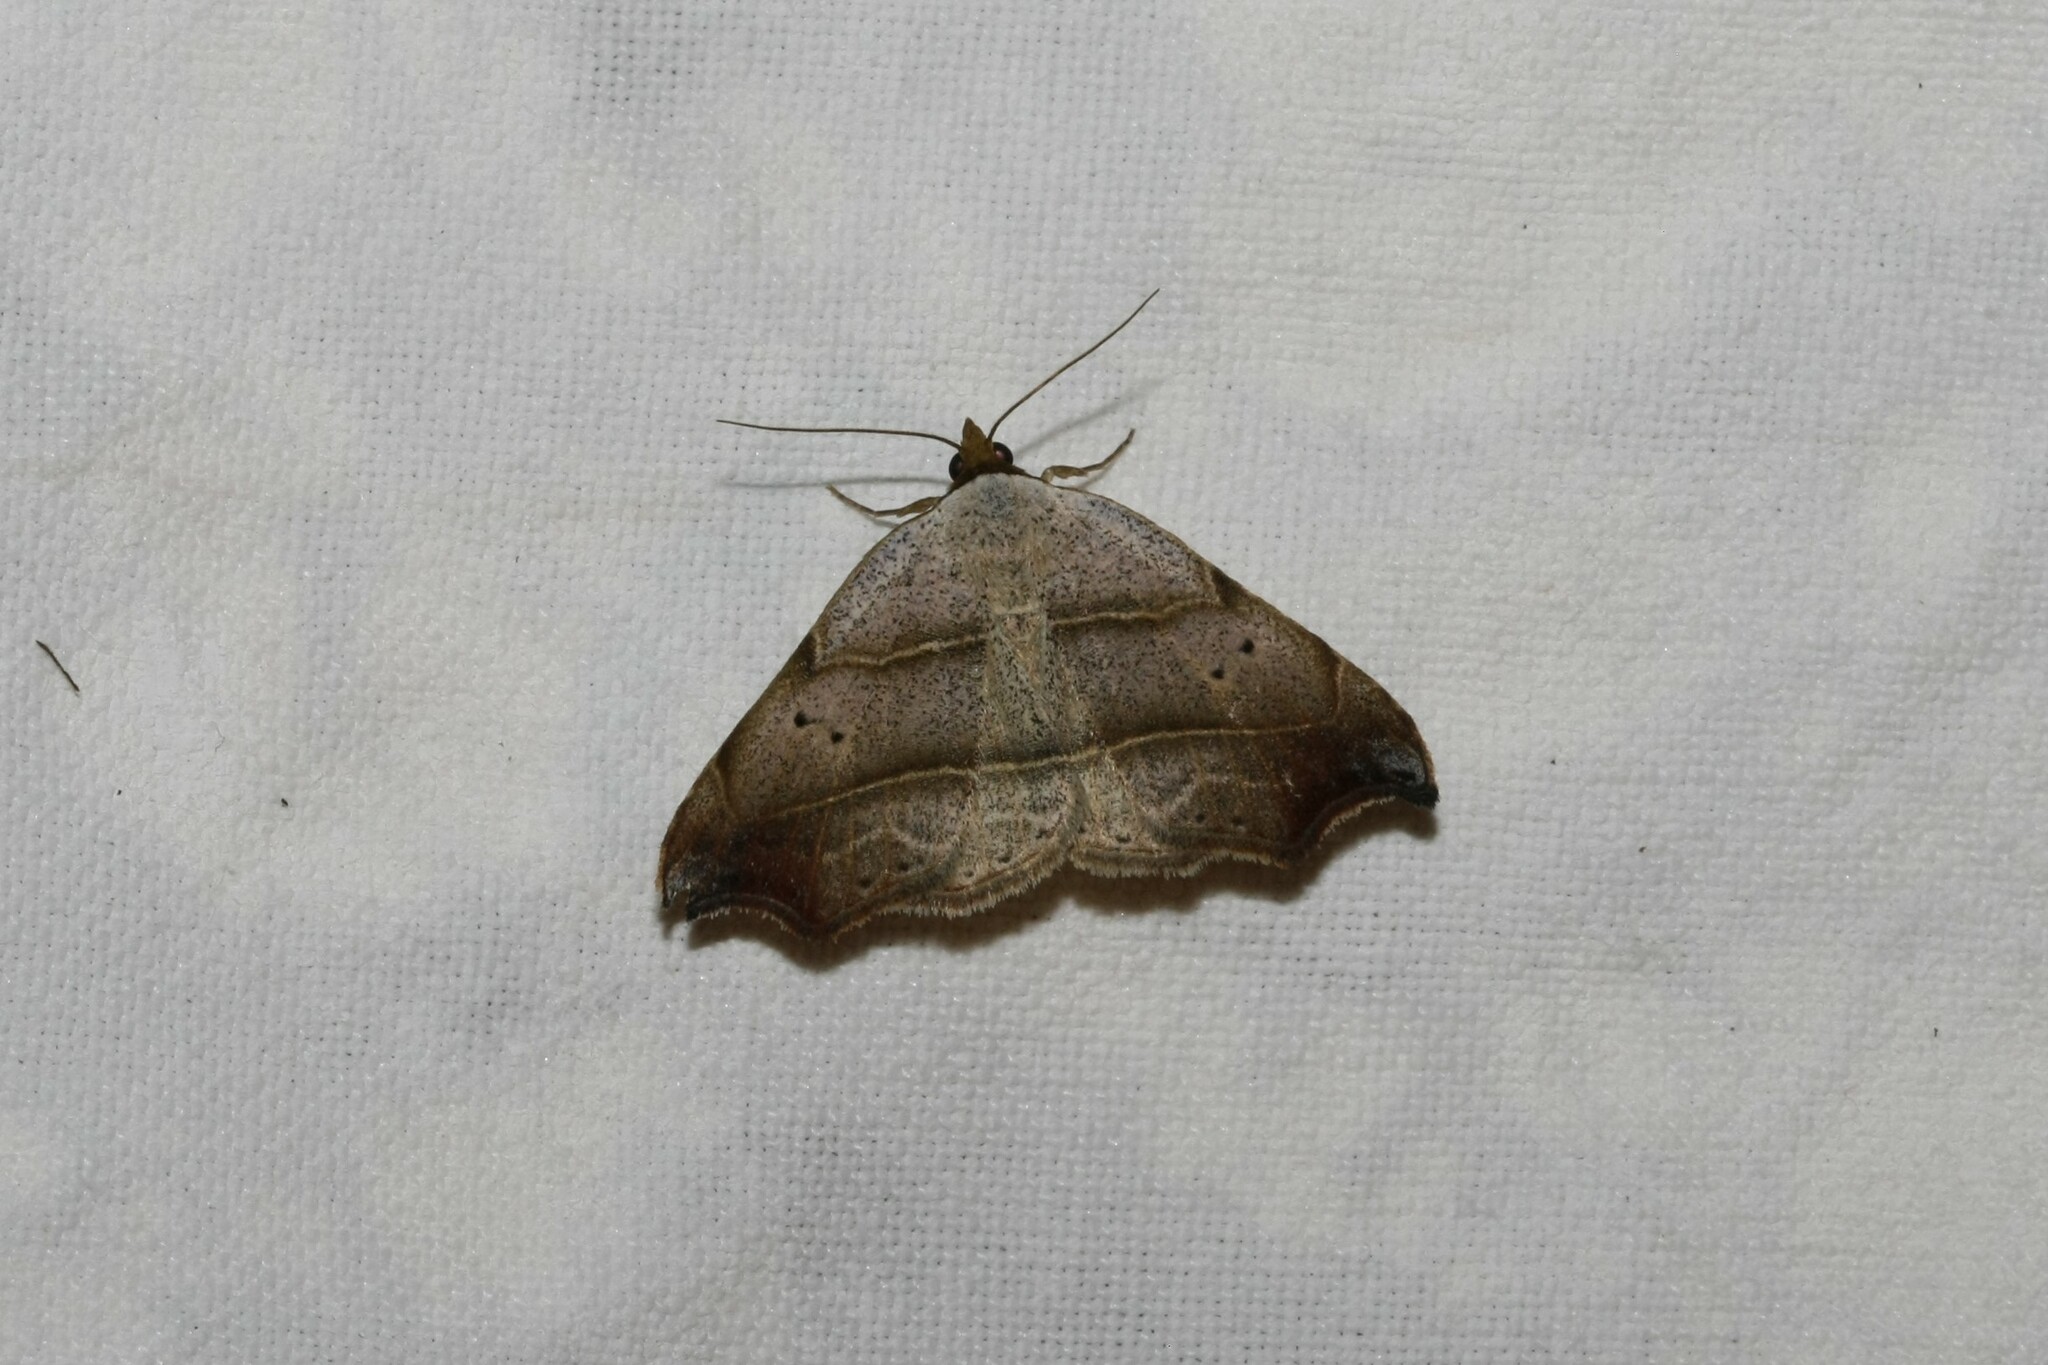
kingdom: Animalia
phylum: Arthropoda
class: Insecta
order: Lepidoptera
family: Erebidae
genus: Laspeyria
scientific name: Laspeyria flexula
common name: Beautiful hook-tip
